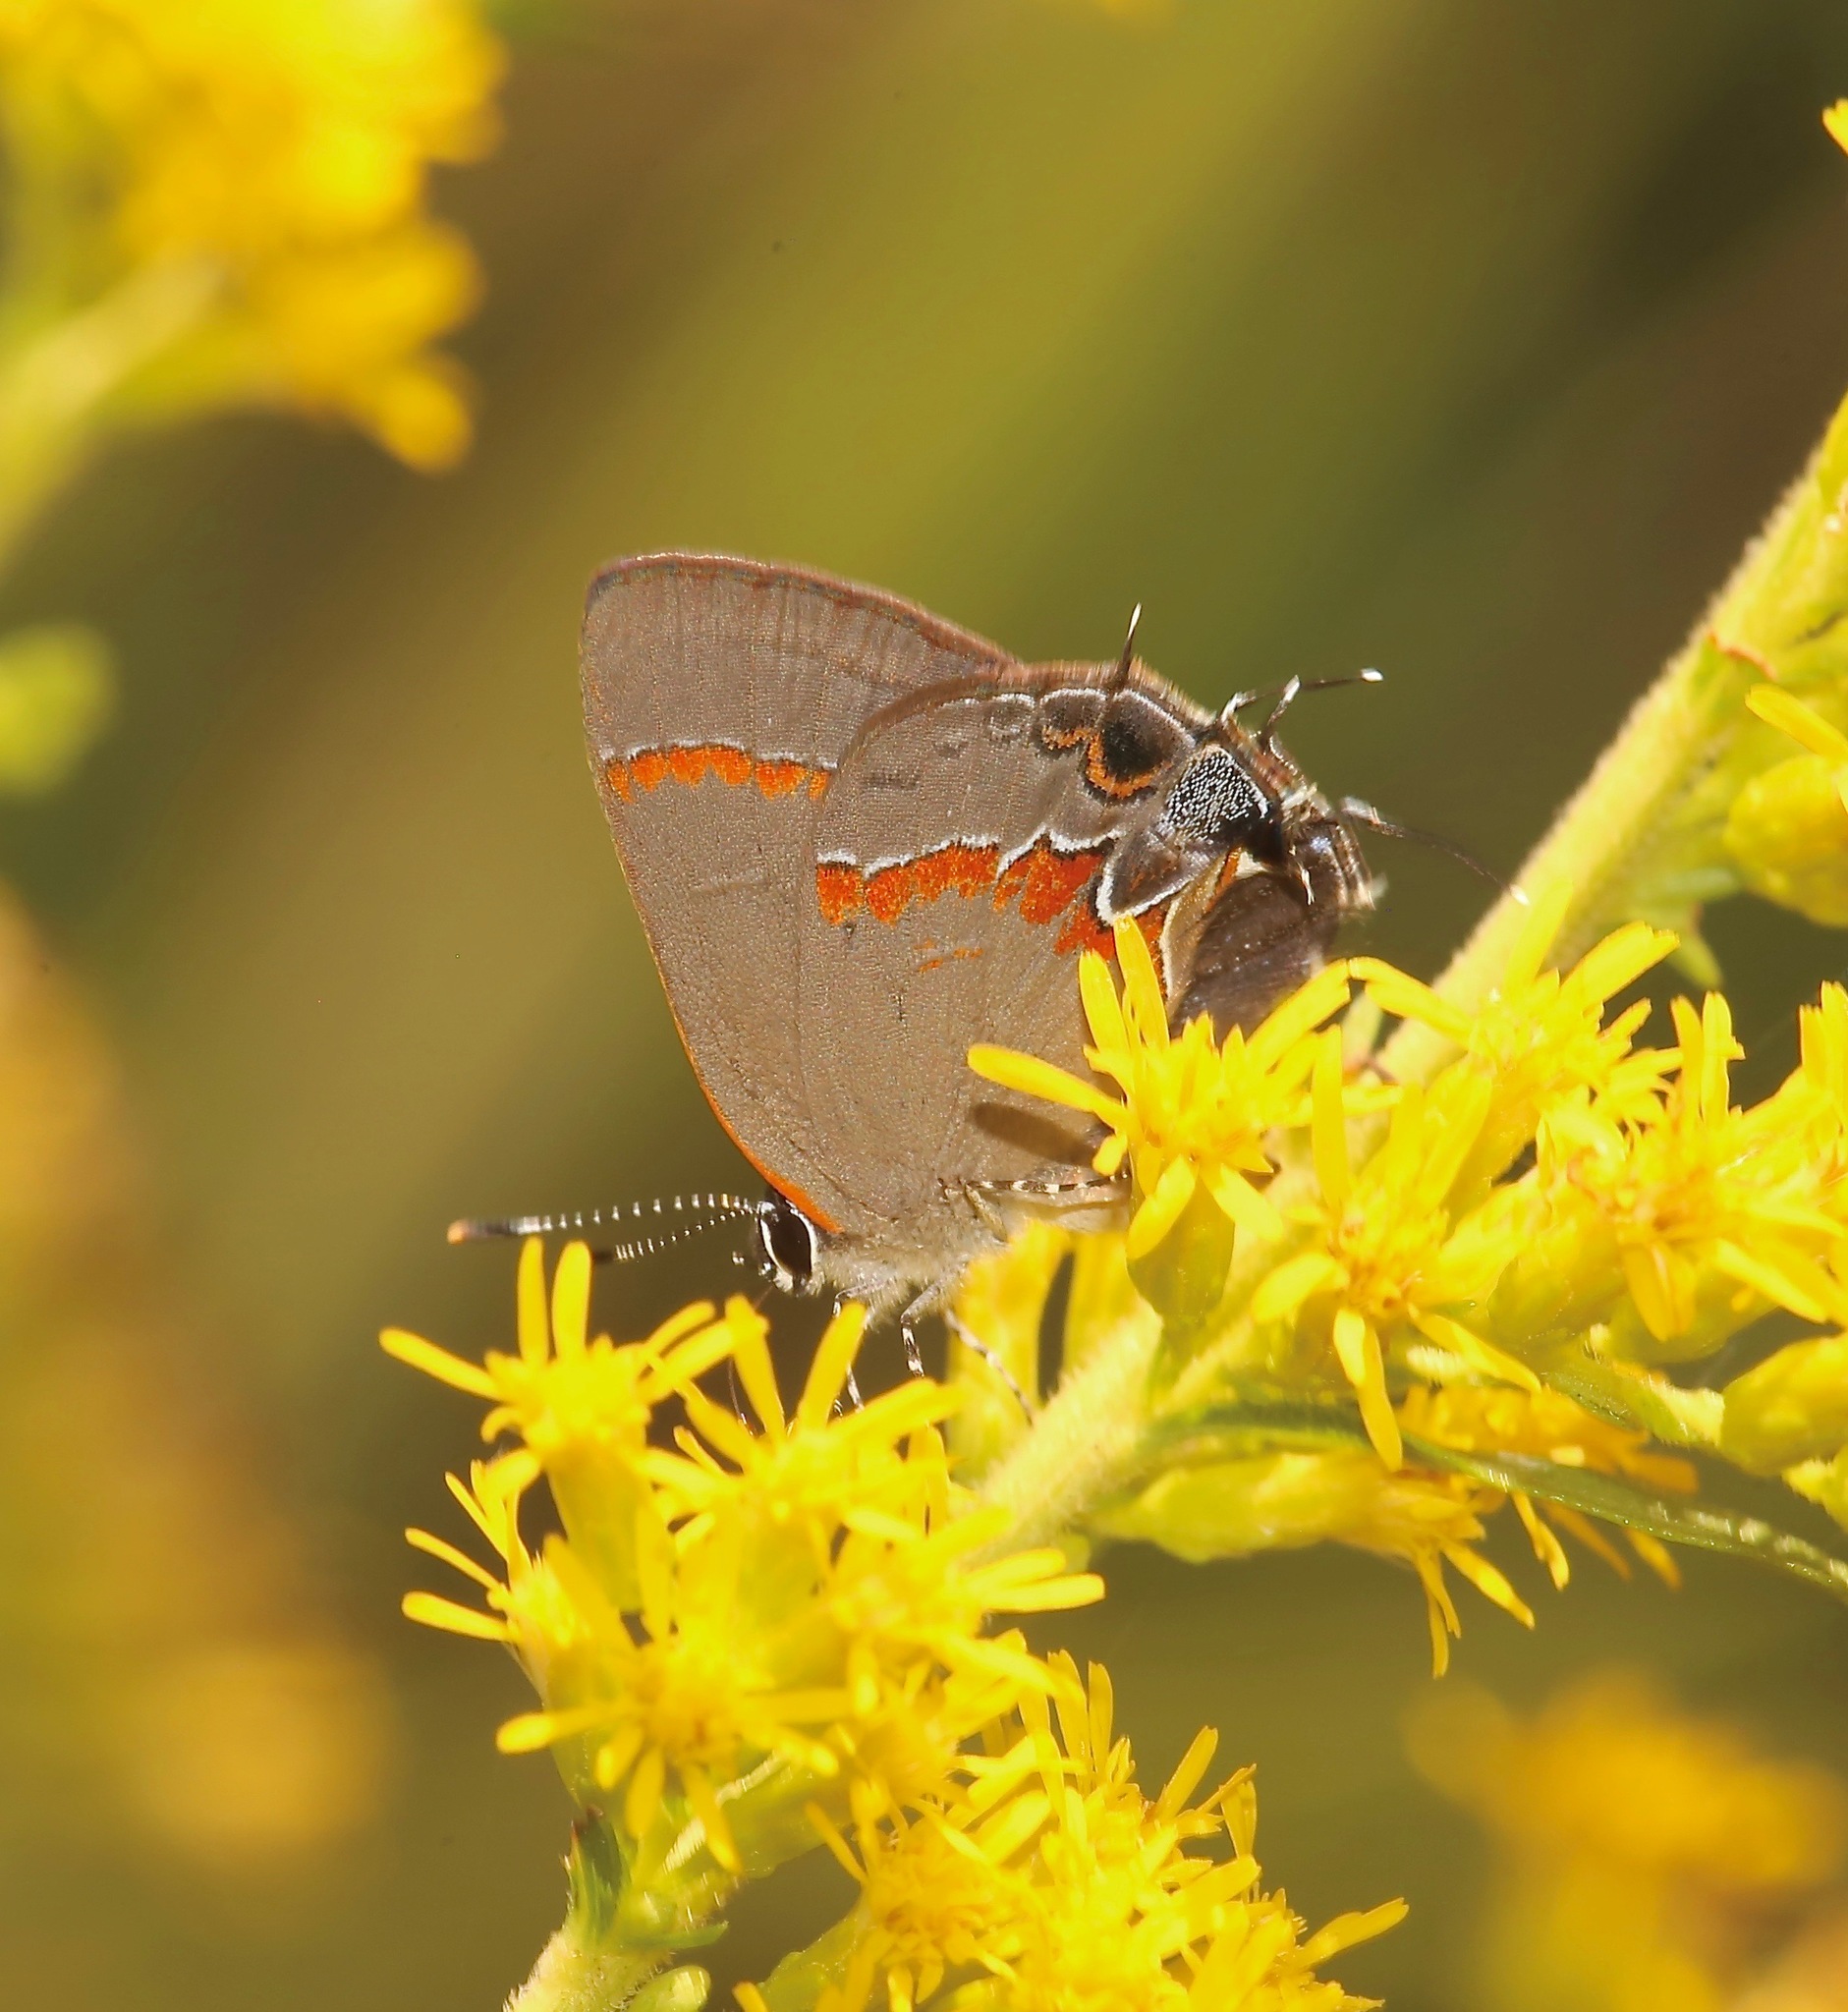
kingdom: Animalia
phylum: Arthropoda
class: Insecta
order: Lepidoptera
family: Lycaenidae
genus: Calycopis
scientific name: Calycopis cecrops
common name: Red-banded hairstreak
